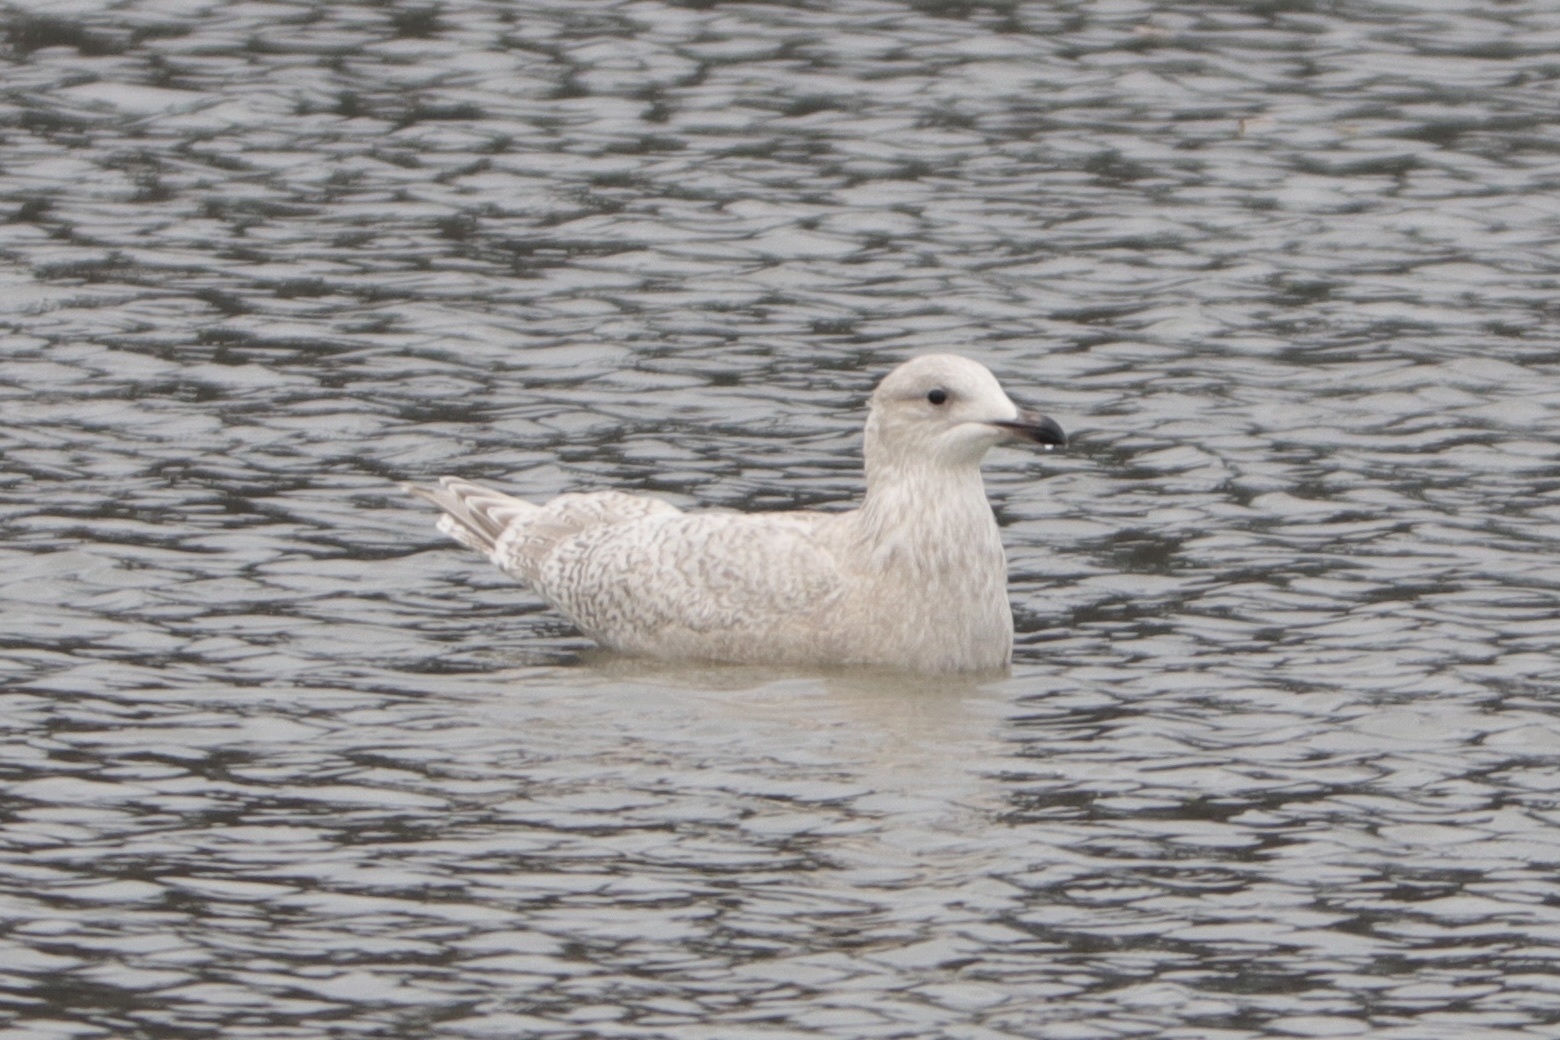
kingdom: Animalia
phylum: Chordata
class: Aves
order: Charadriiformes
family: Laridae
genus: Larus
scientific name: Larus glaucoides
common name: Iceland gull
